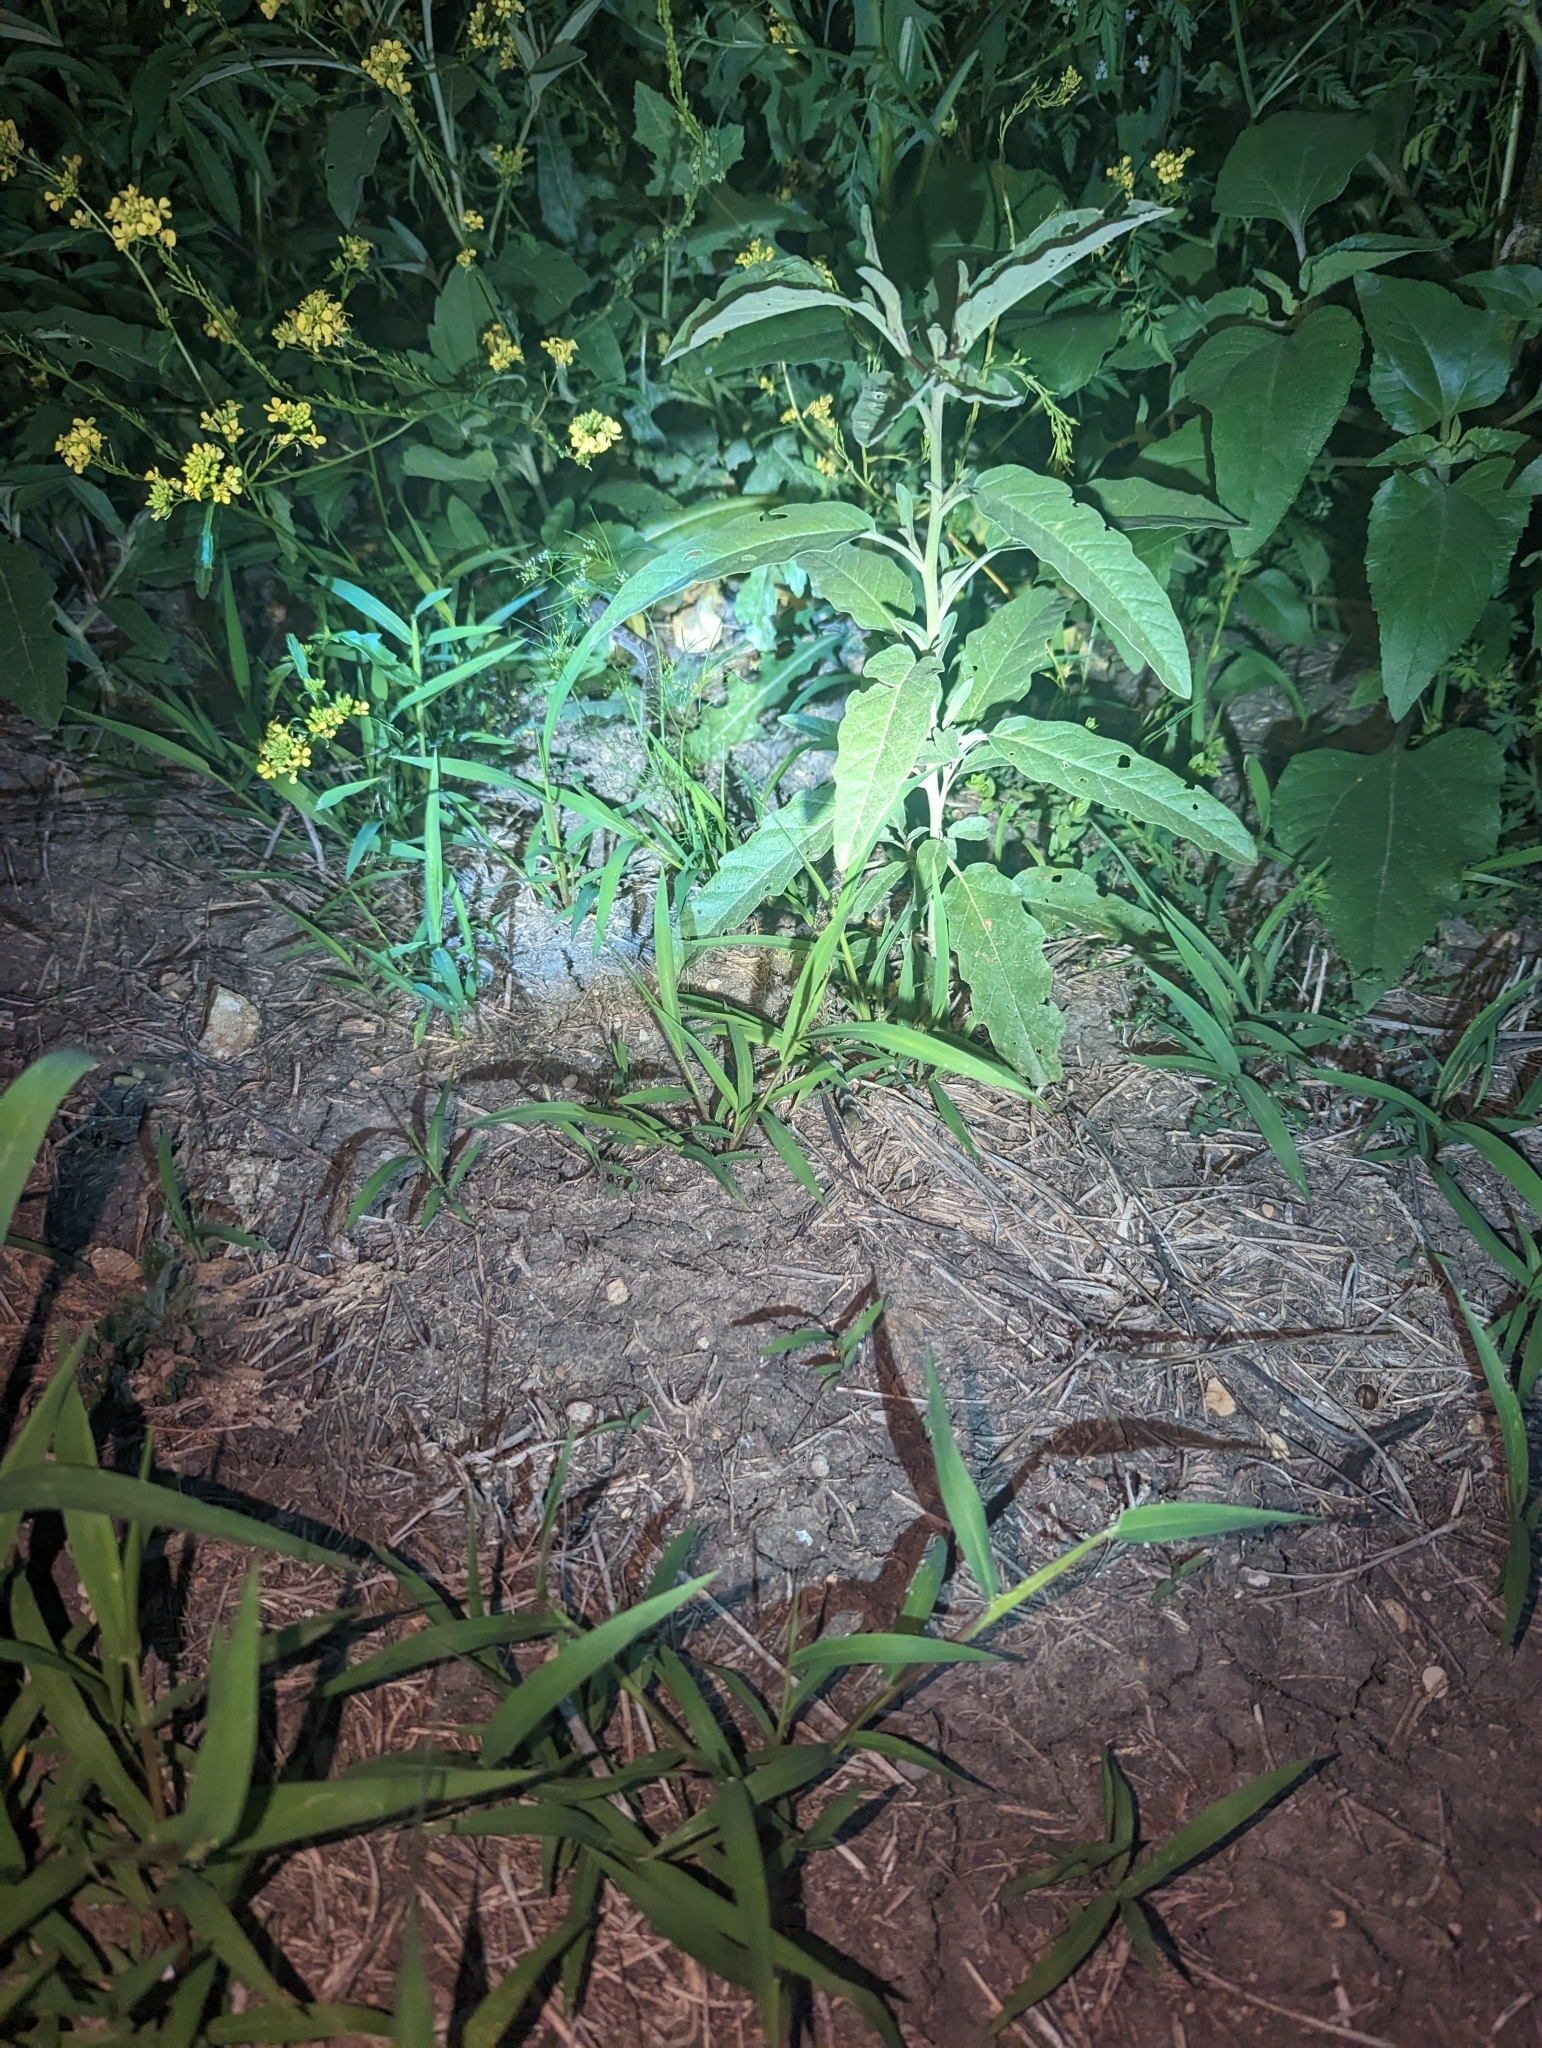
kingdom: Animalia
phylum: Chordata
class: Squamata
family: Viperidae
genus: Crotalus
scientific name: Crotalus atrox
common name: Western diamond-backed rattlesnake
